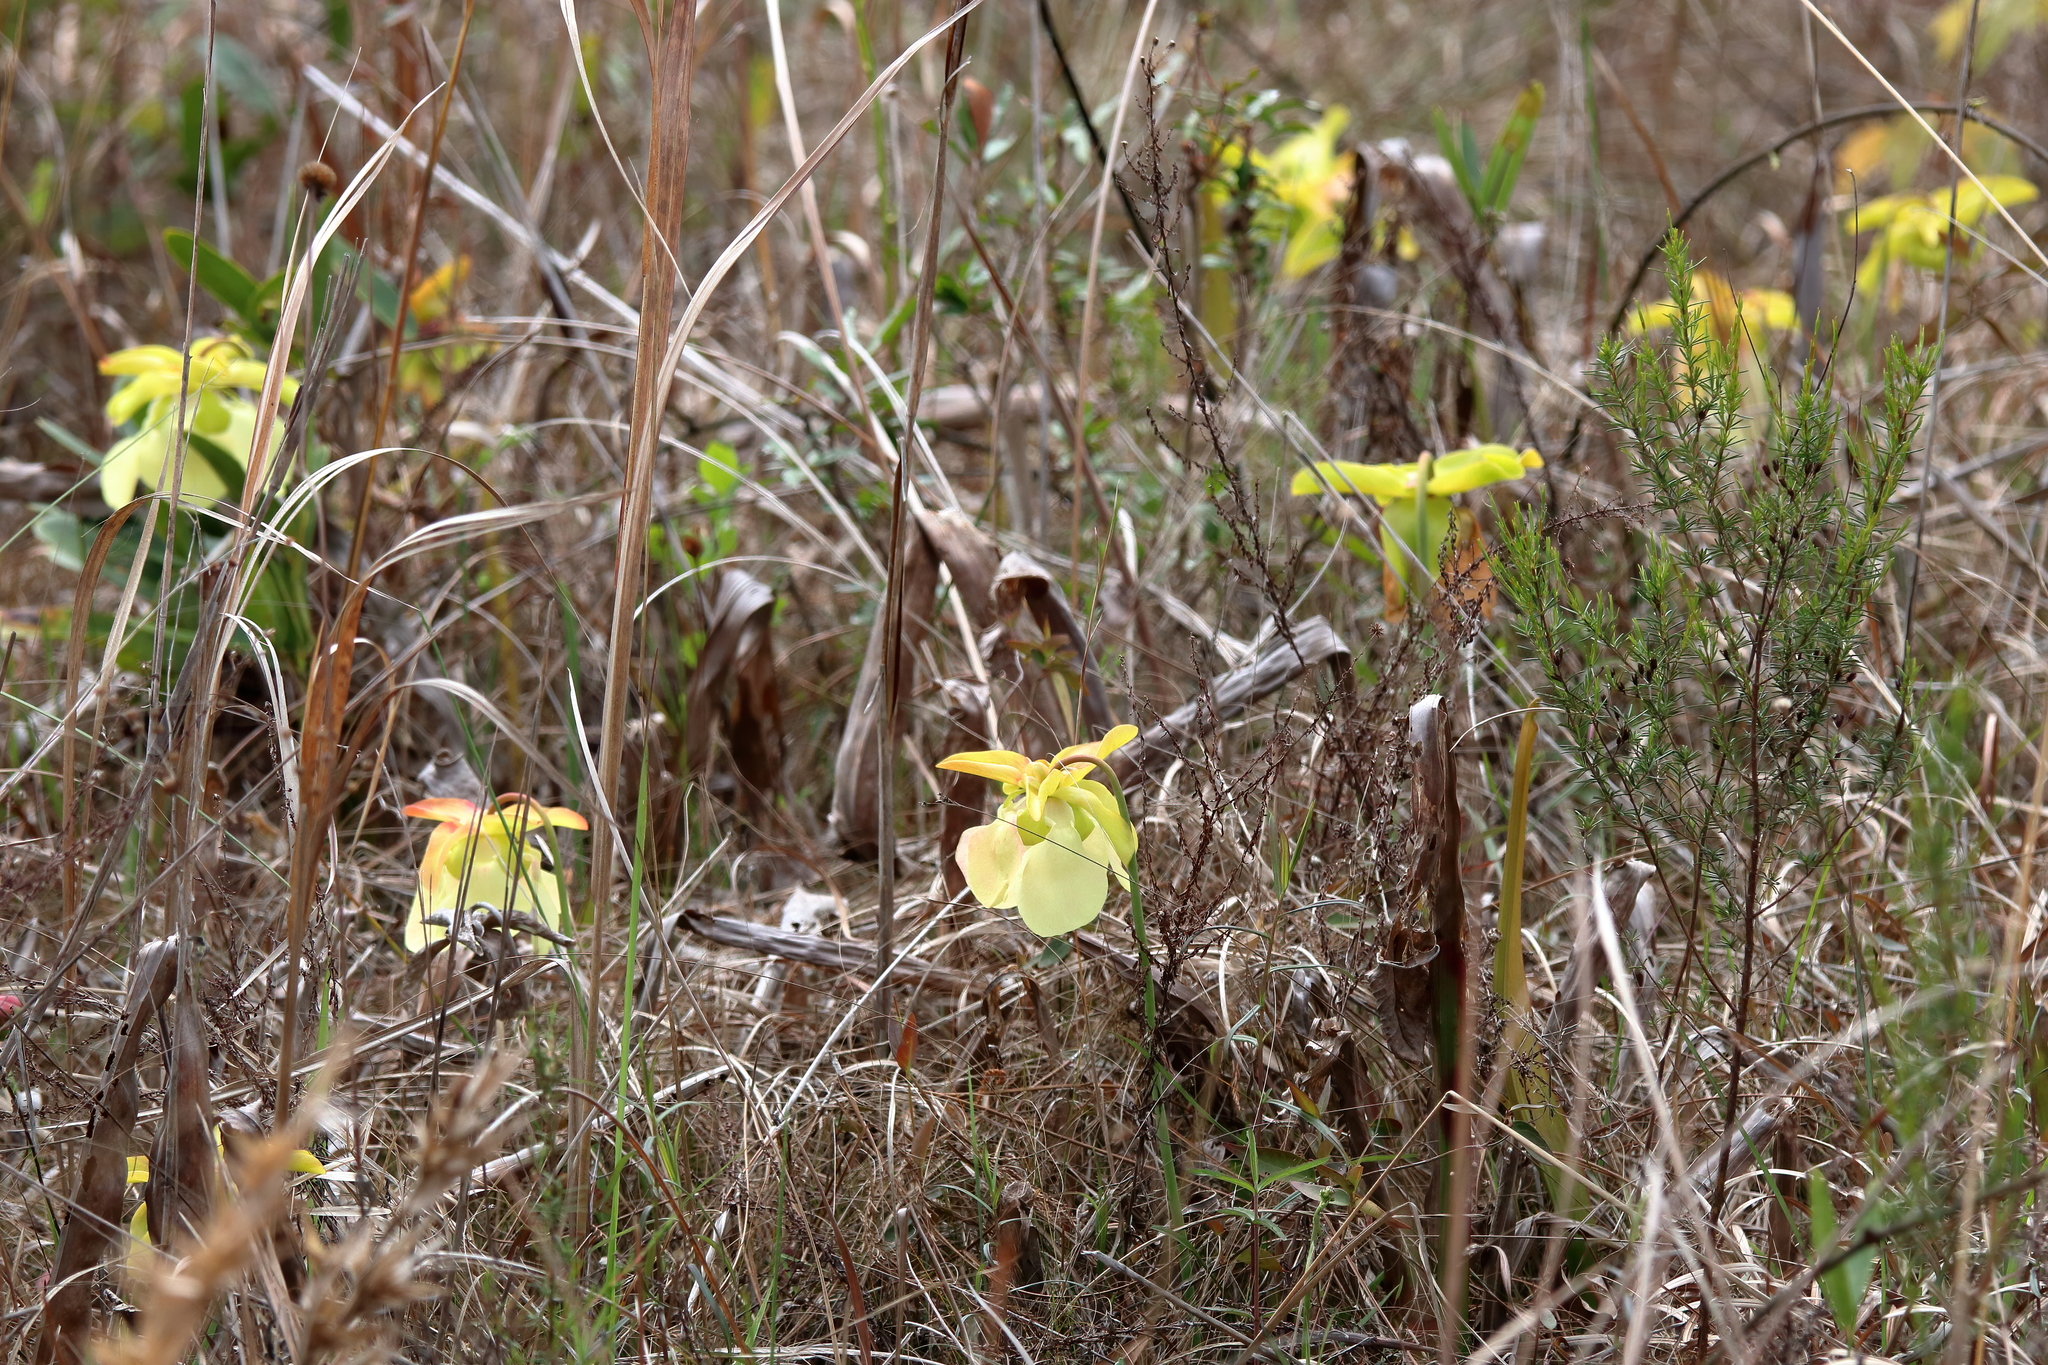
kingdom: Plantae
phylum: Tracheophyta
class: Magnoliopsida
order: Ericales
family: Sarraceniaceae
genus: Sarracenia
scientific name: Sarracenia alata
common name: Yellow trumpets
